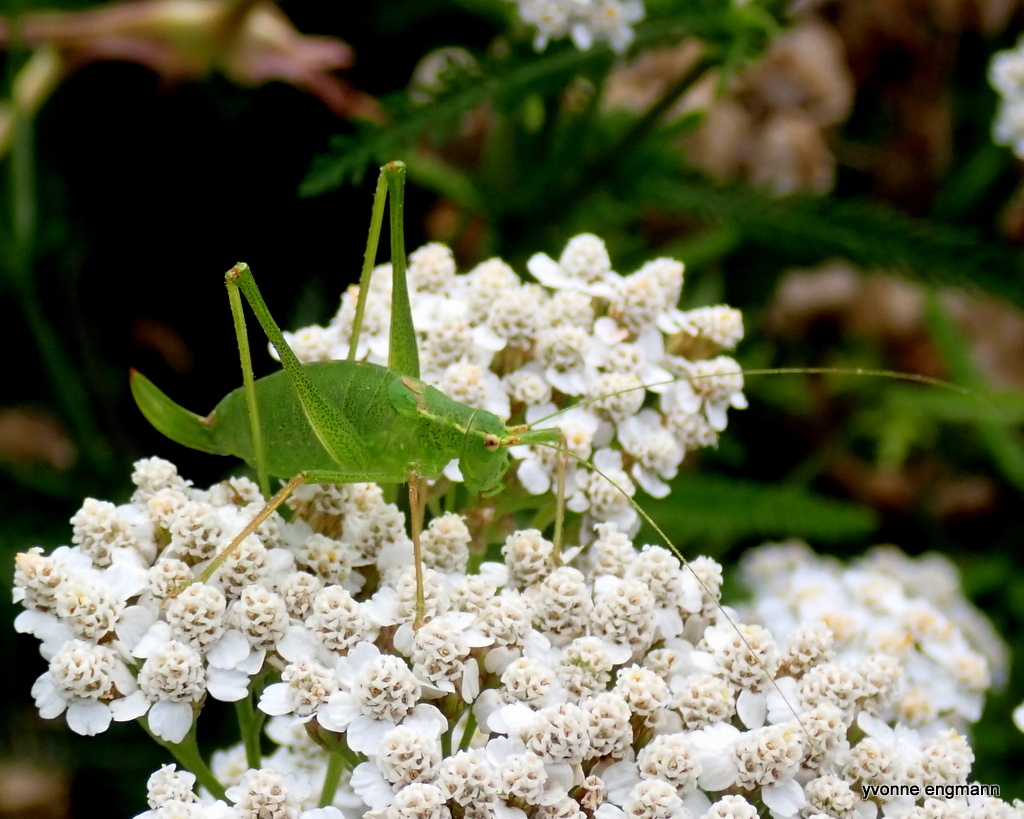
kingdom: Animalia
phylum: Arthropoda
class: Insecta
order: Orthoptera
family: Tettigoniidae
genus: Leptophyes
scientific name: Leptophyes punctatissima
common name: Speckled bush-cricket
